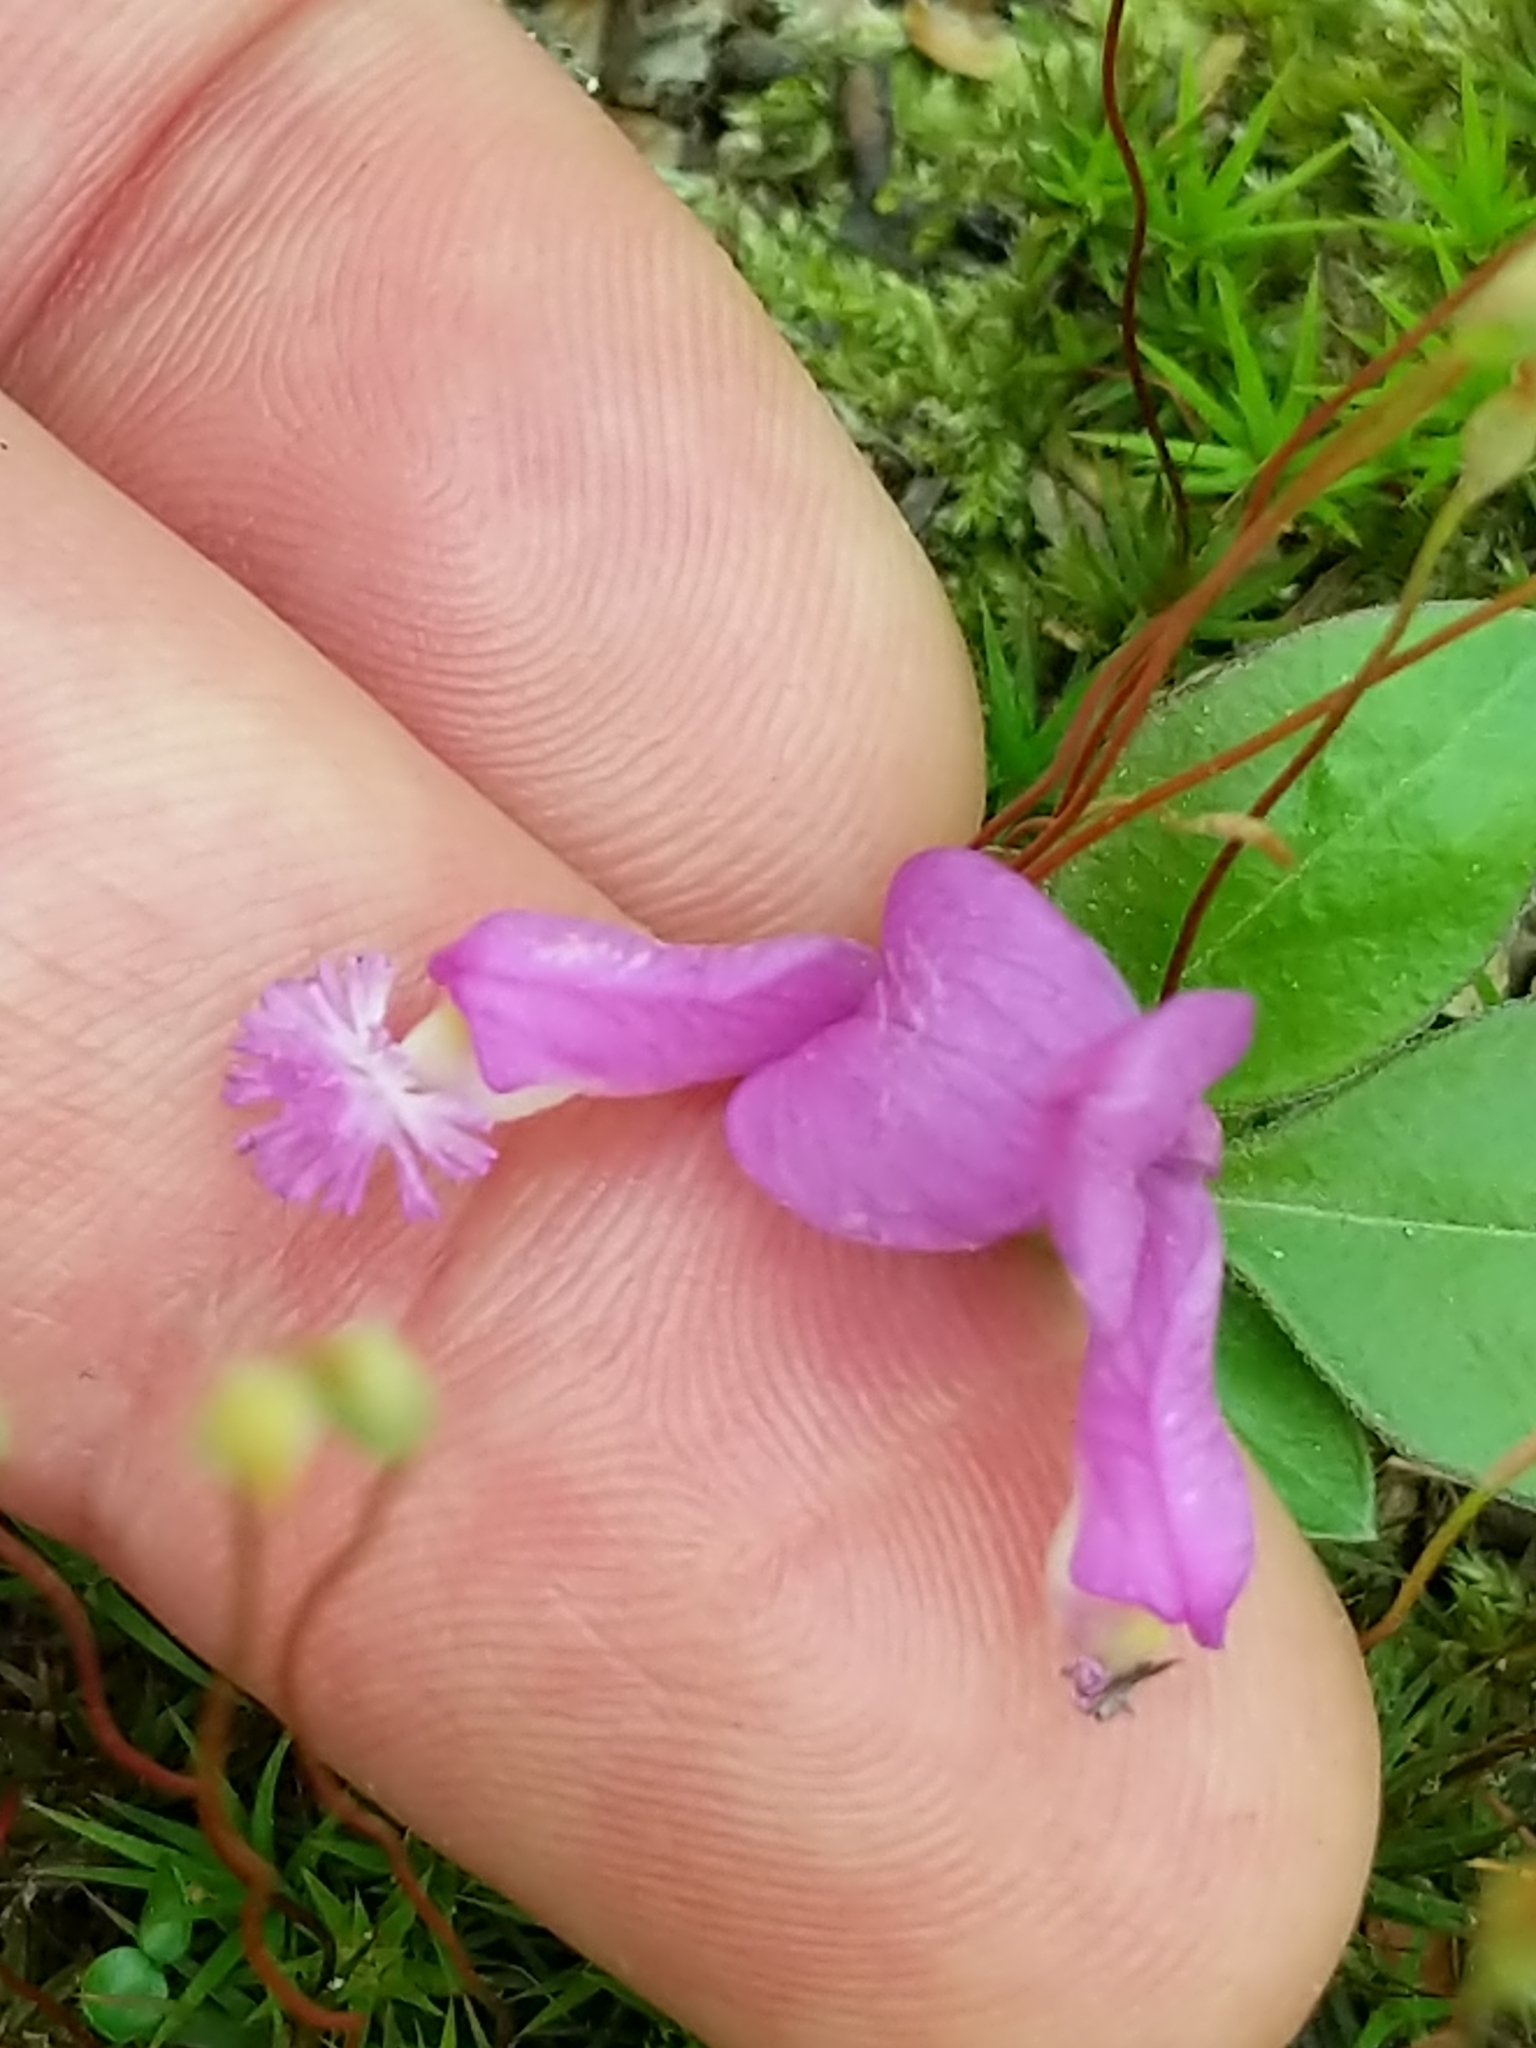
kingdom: Plantae
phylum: Tracheophyta
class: Magnoliopsida
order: Fabales
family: Polygalaceae
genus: Polygaloides
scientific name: Polygaloides paucifolia
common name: Bird-on-the-wing
